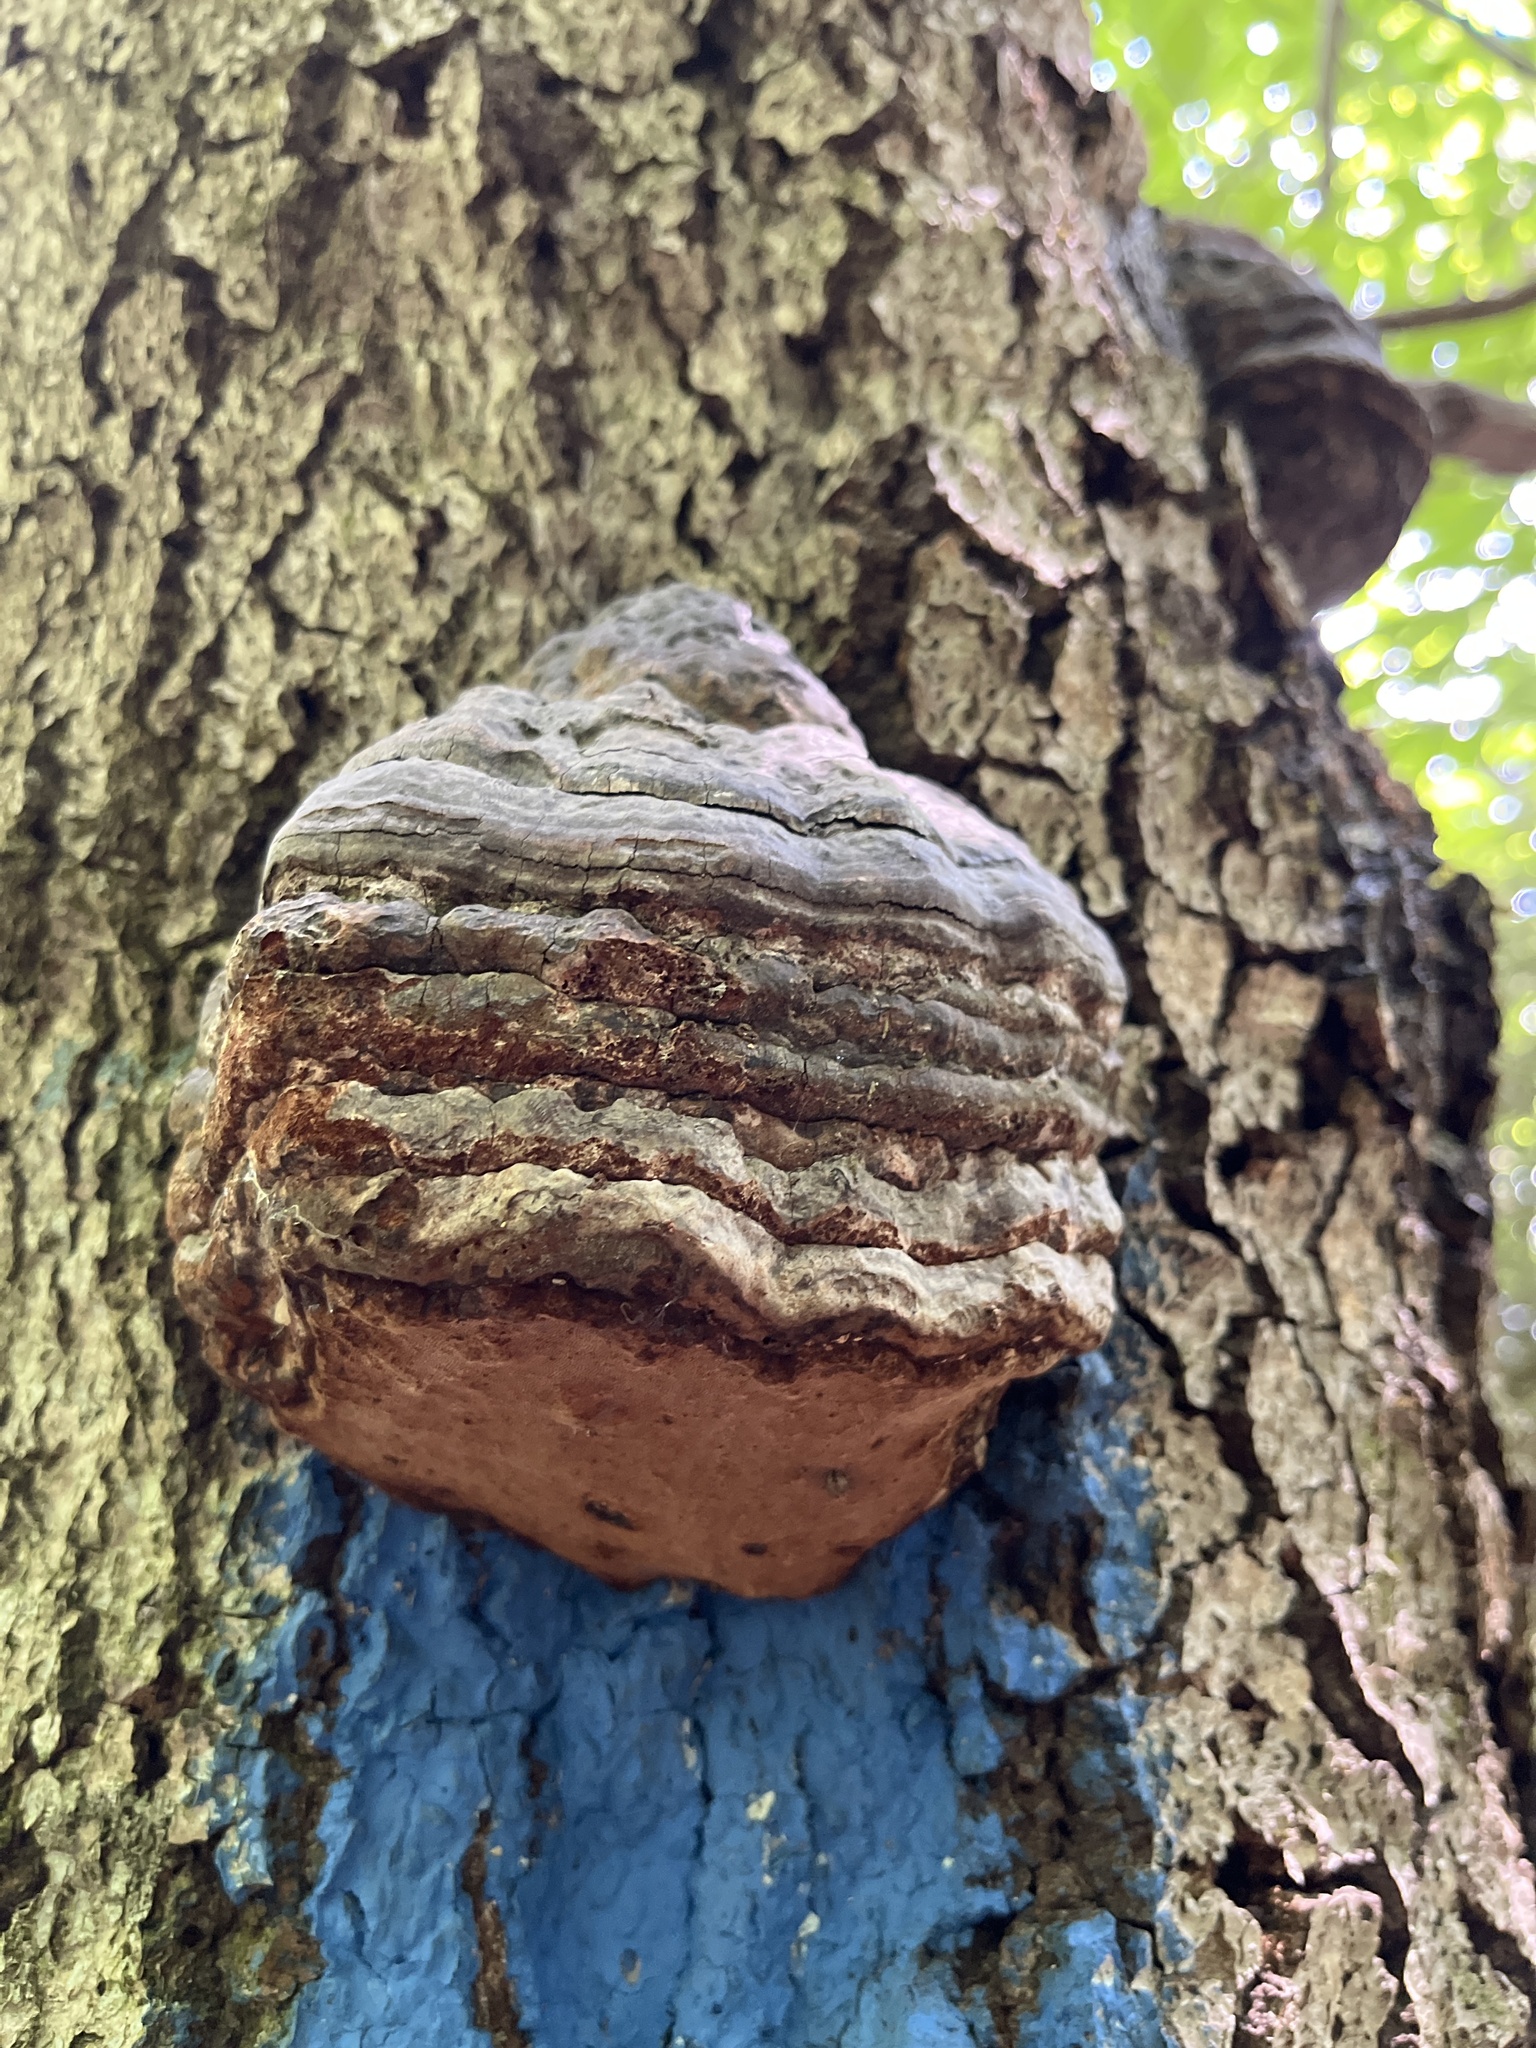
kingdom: Fungi
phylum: Basidiomycota
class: Agaricomycetes
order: Polyporales
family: Polyporaceae
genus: Fomes
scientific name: Fomes fomentarius
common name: Hoof fungus
